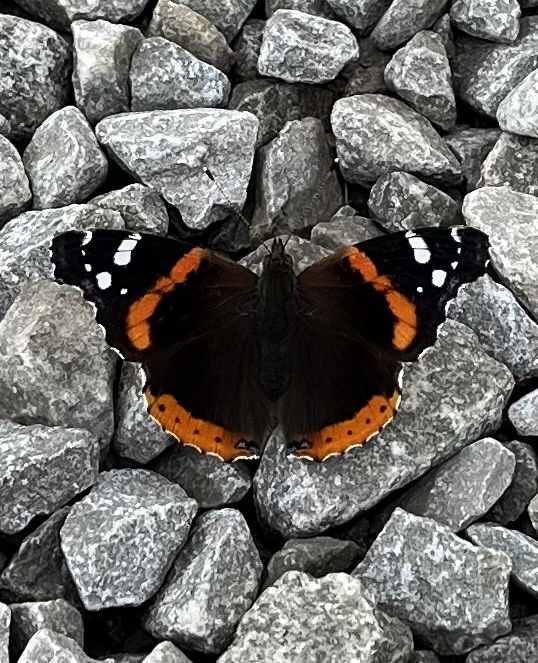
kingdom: Animalia
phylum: Arthropoda
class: Insecta
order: Lepidoptera
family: Nymphalidae
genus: Vanessa
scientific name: Vanessa atalanta
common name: Red admiral
